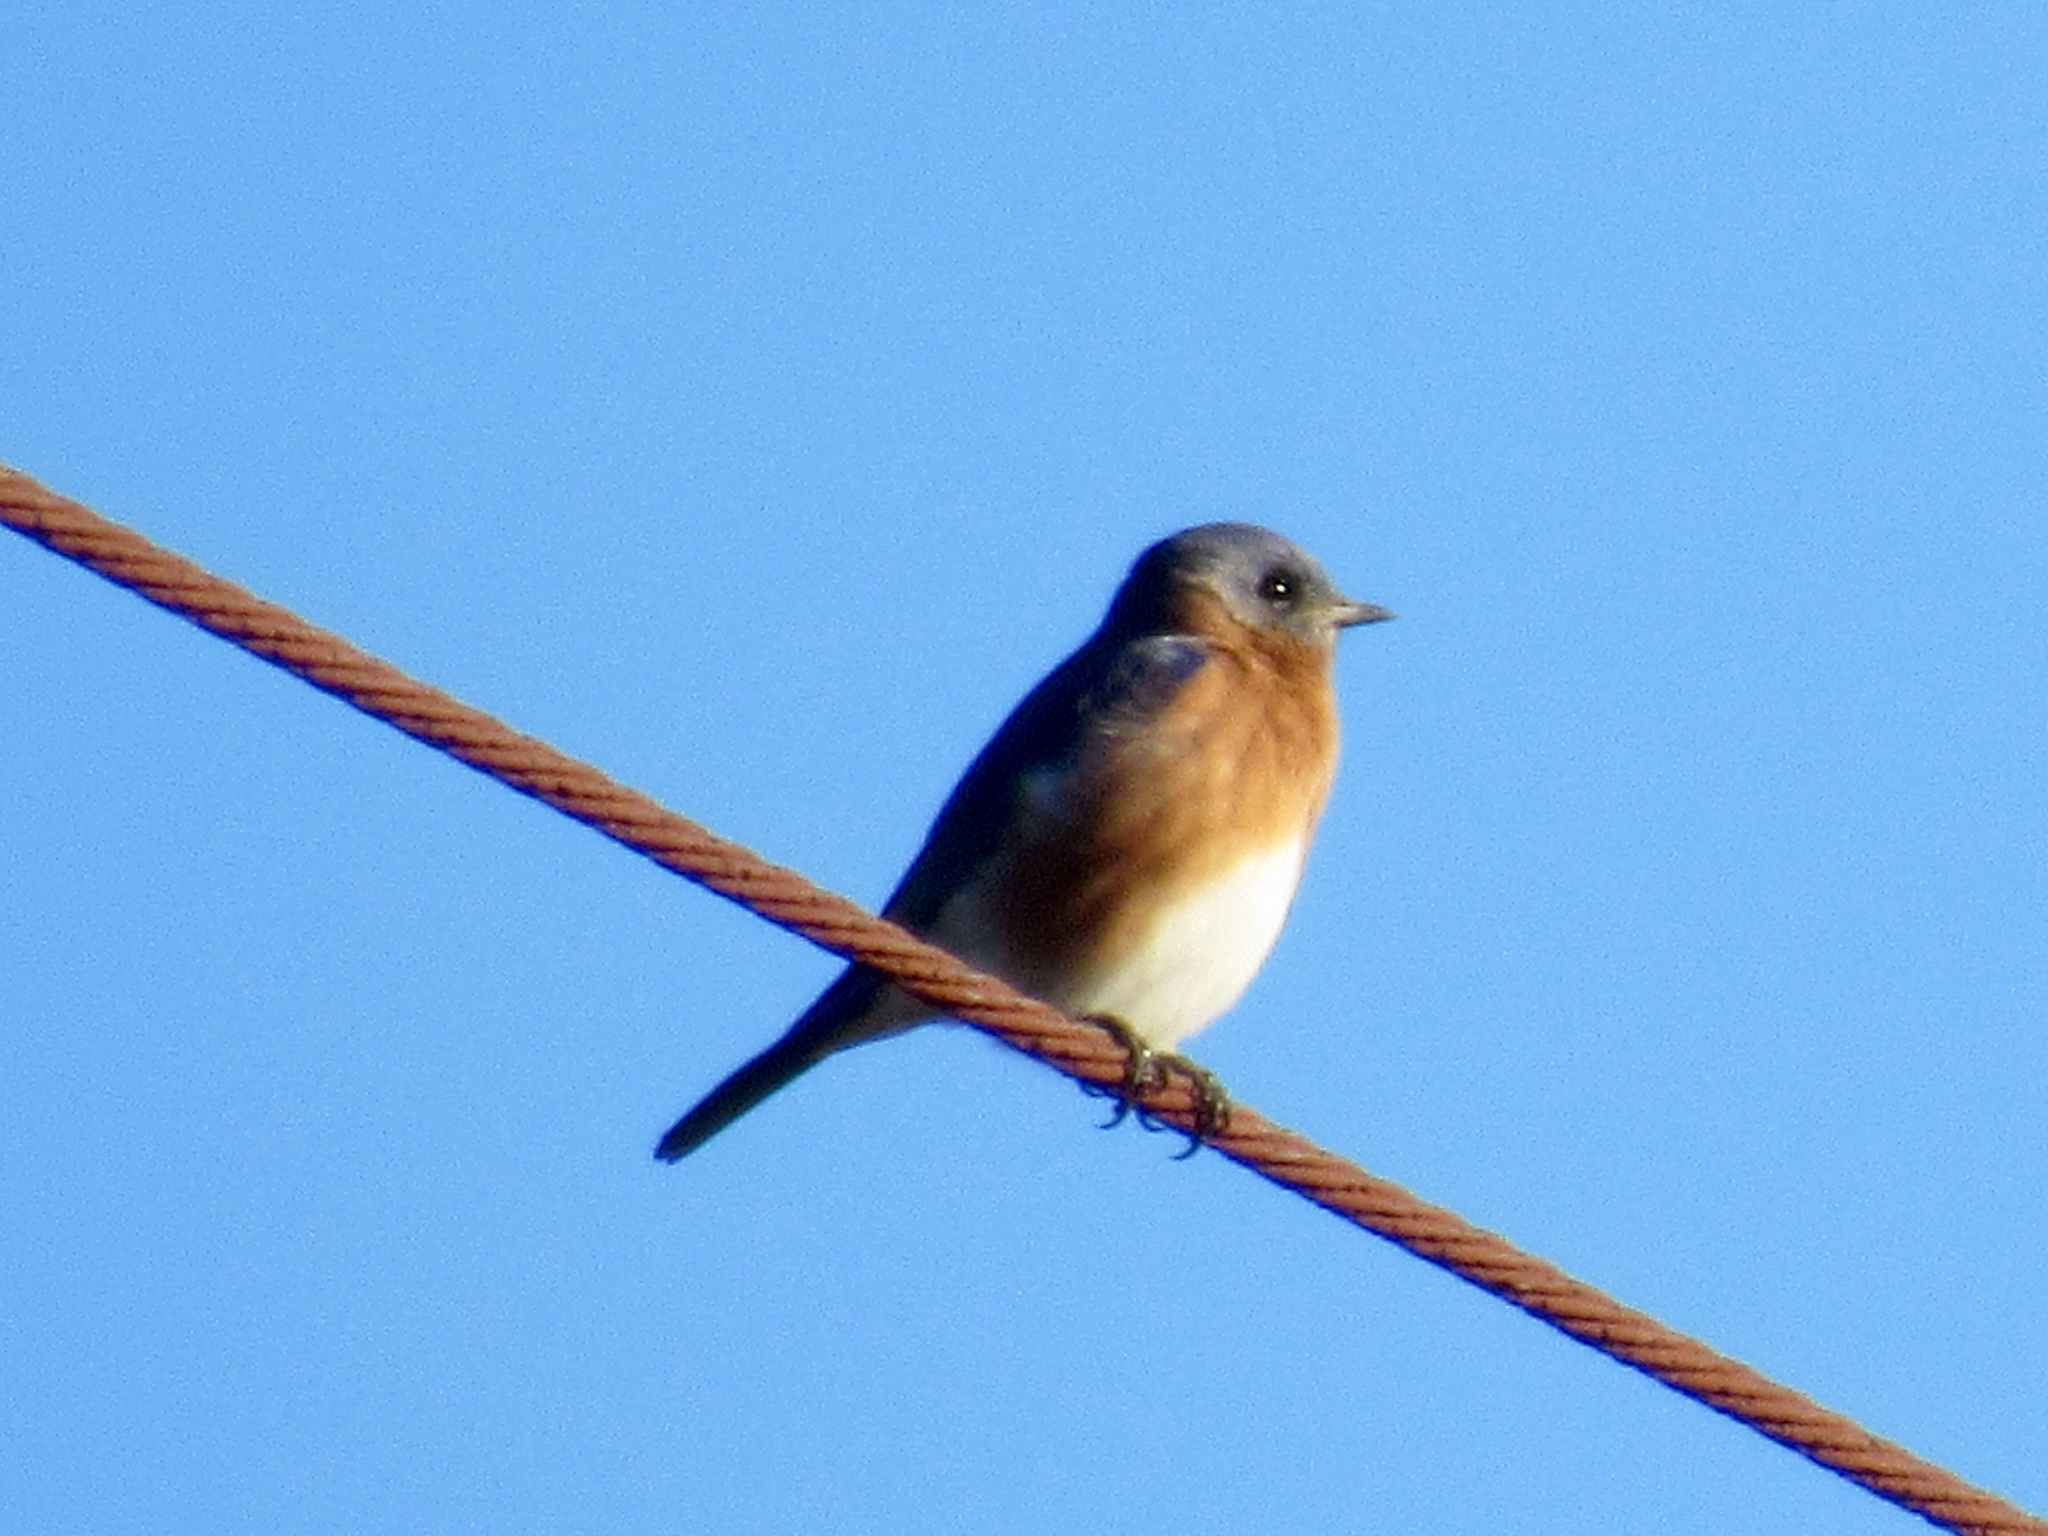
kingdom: Animalia
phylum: Chordata
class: Aves
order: Passeriformes
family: Turdidae
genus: Sialia
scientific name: Sialia sialis
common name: Eastern bluebird
